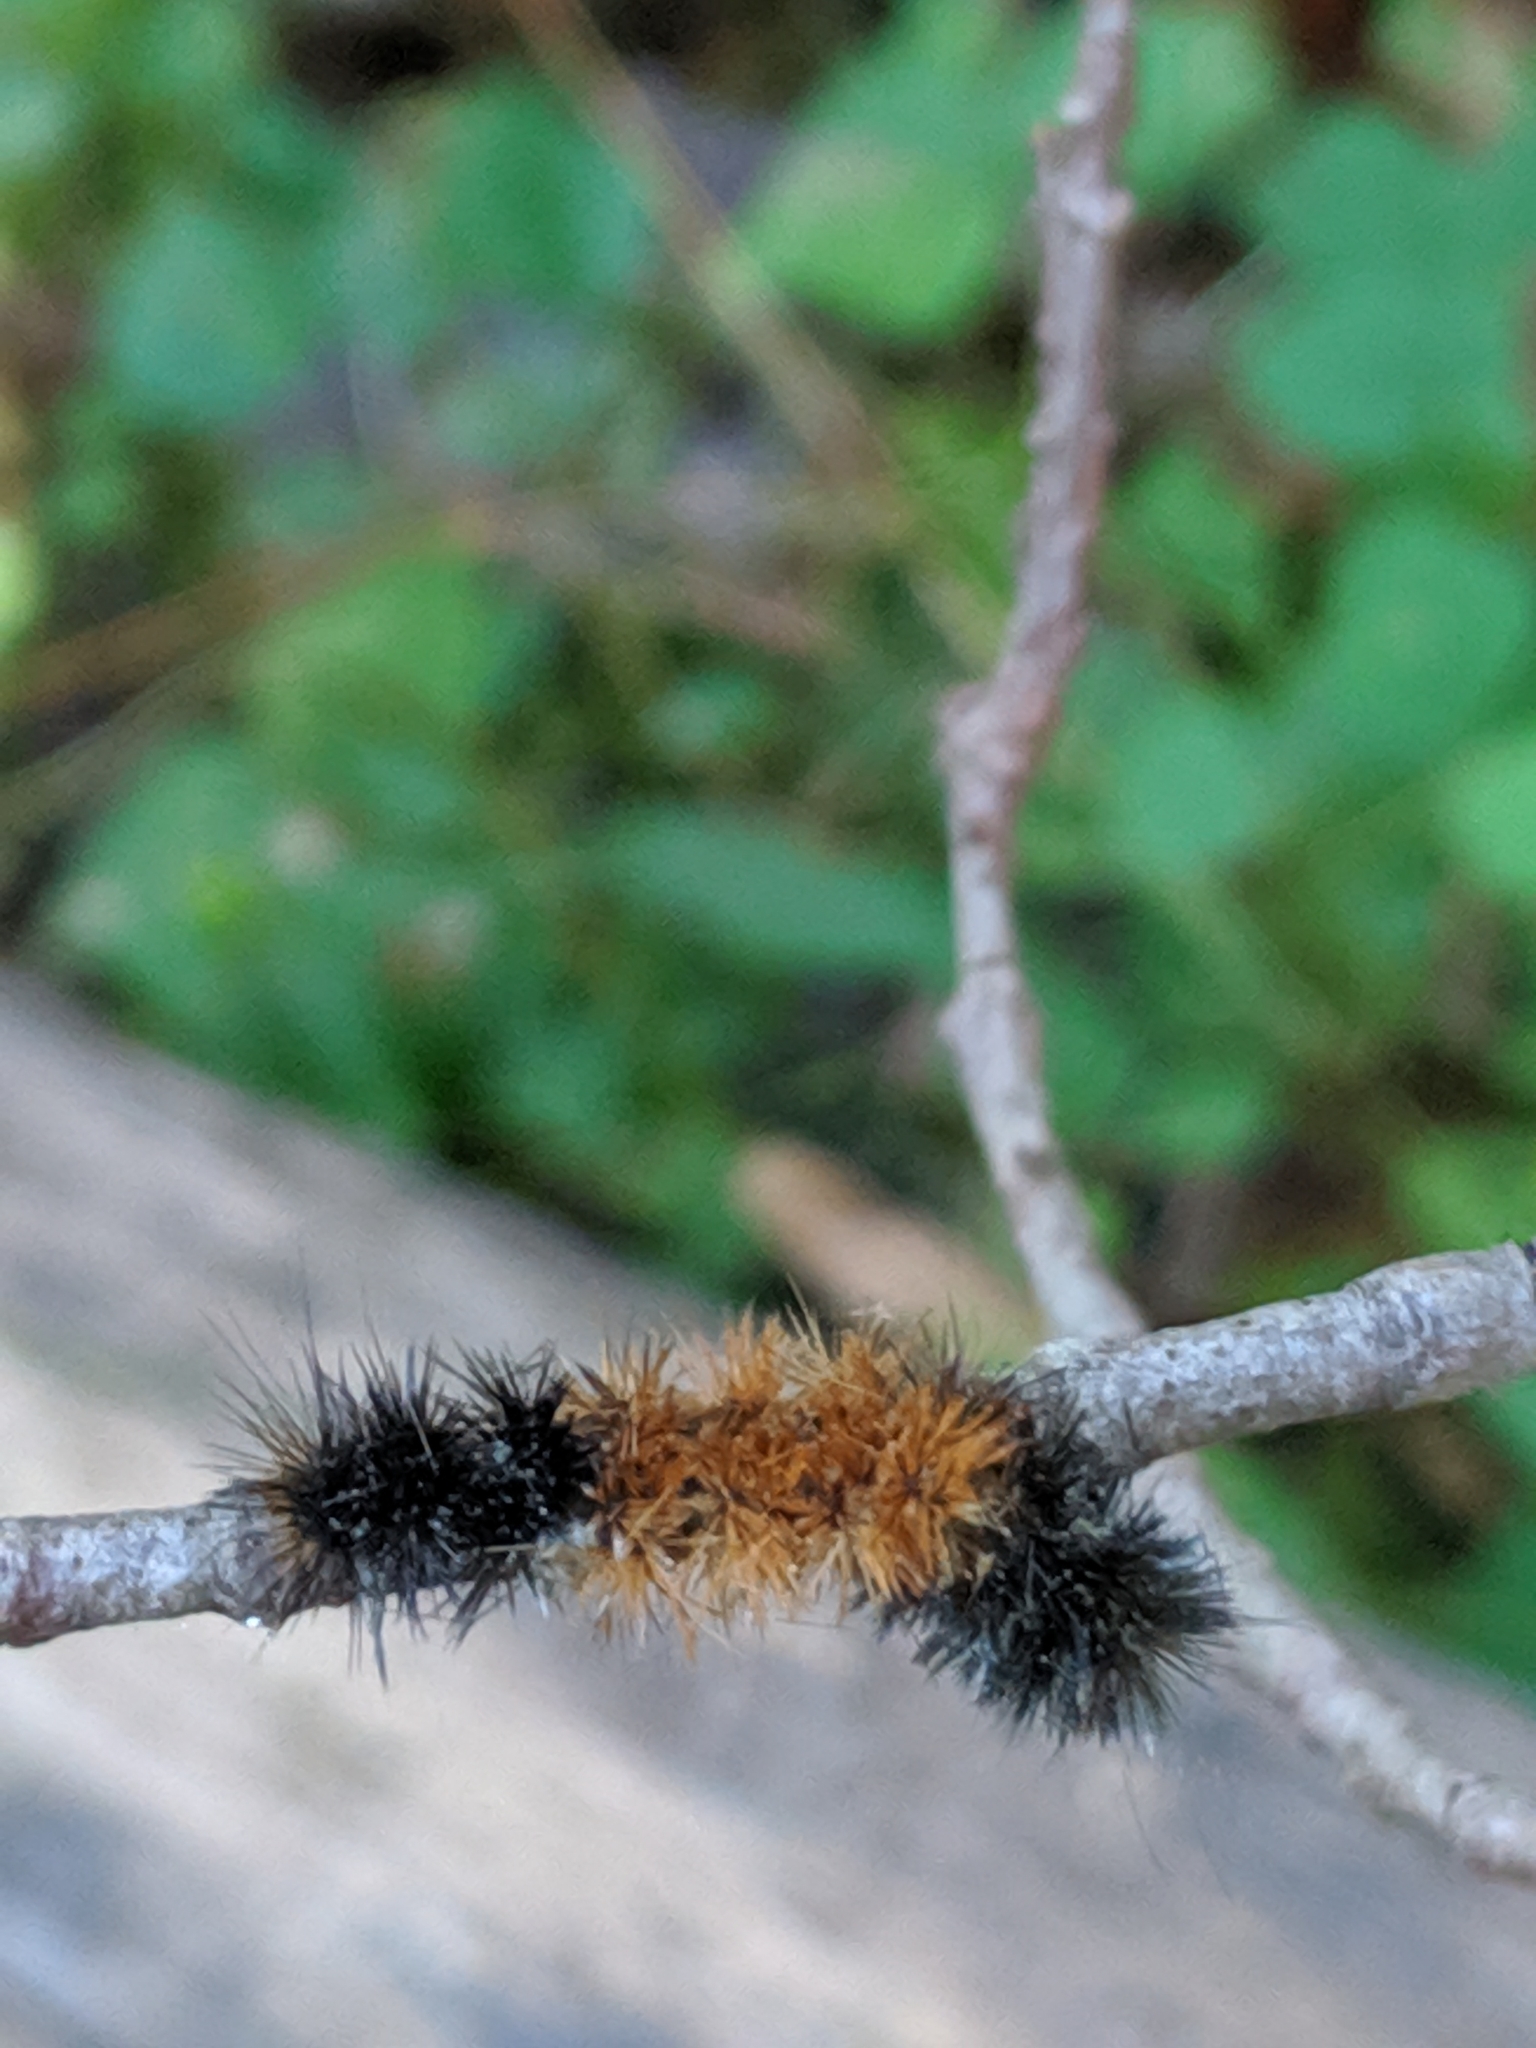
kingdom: Animalia
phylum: Arthropoda
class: Insecta
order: Lepidoptera
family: Erebidae
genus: Pyrrharctia
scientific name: Pyrrharctia isabella
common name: Isabella tiger moth
